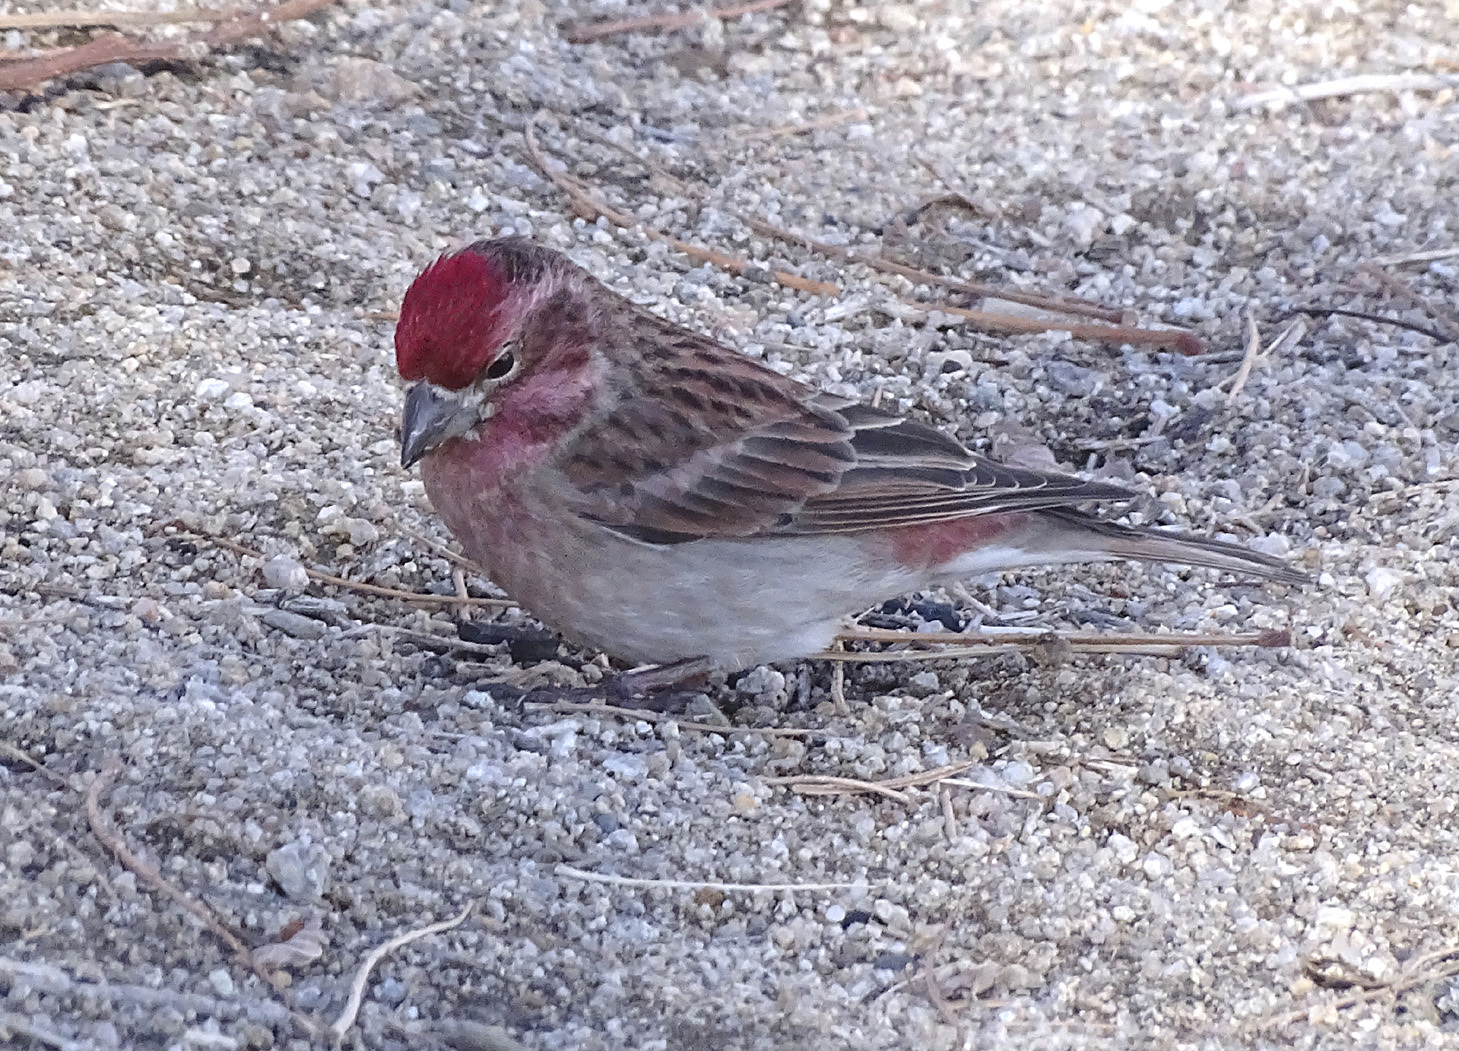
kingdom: Animalia
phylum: Chordata
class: Aves
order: Passeriformes
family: Fringillidae
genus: Haemorhous
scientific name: Haemorhous cassinii
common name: Cassin's finch
